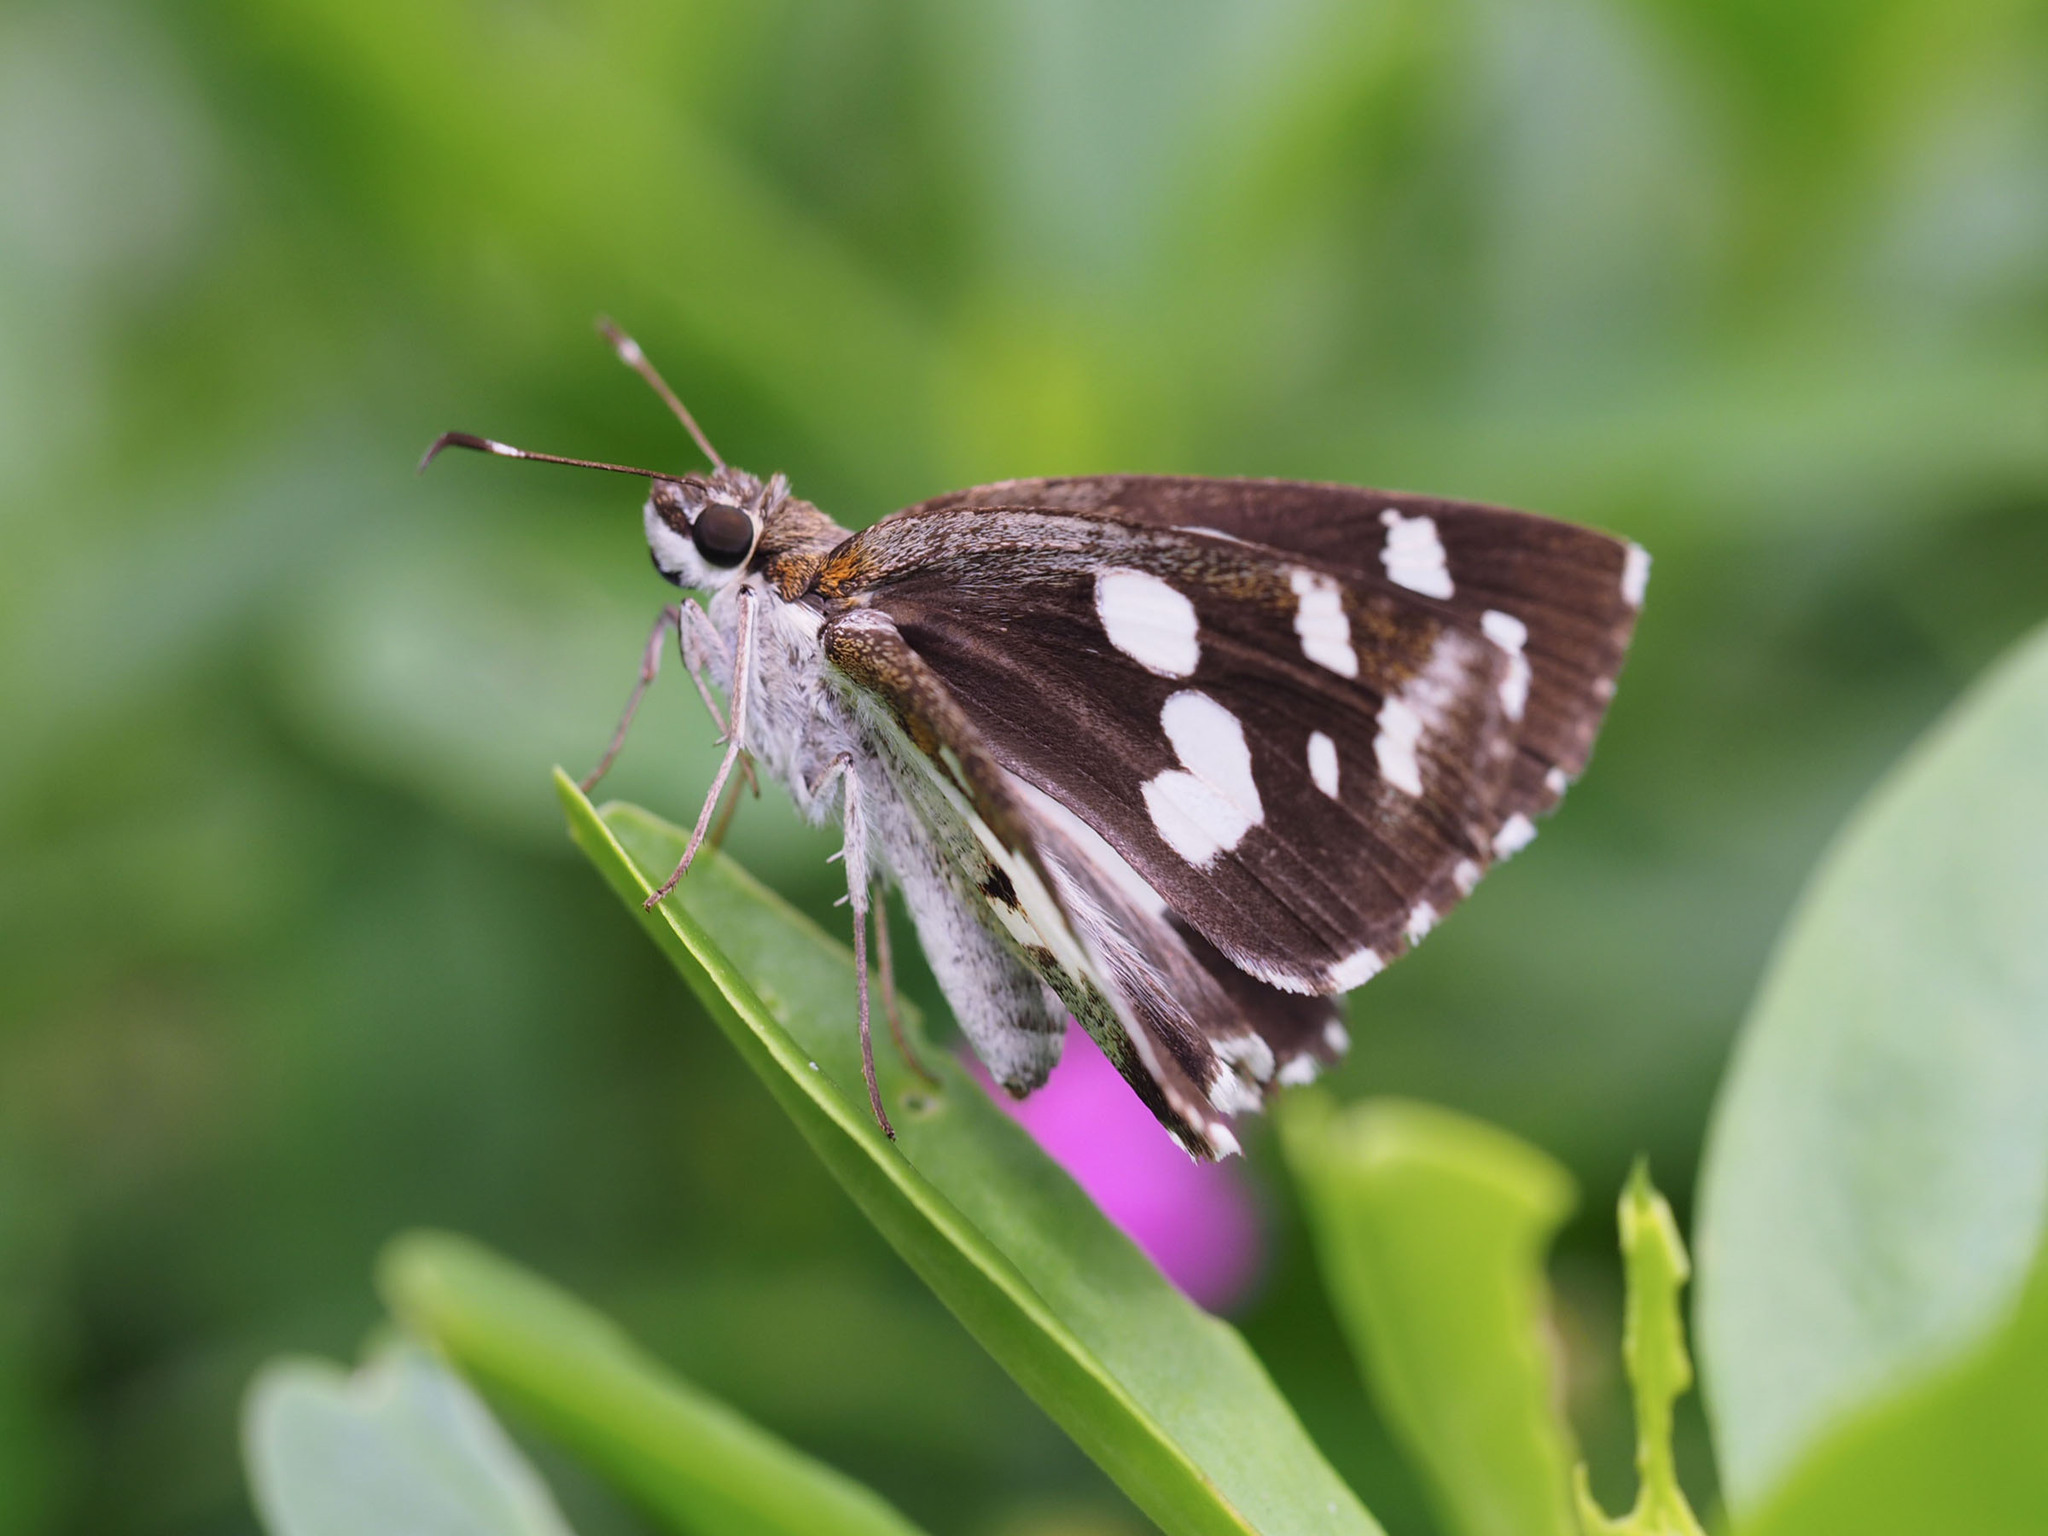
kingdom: Animalia
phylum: Arthropoda
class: Insecta
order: Lepidoptera
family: Hesperiidae
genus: Udaspes
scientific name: Udaspes folus
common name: Grass demon
